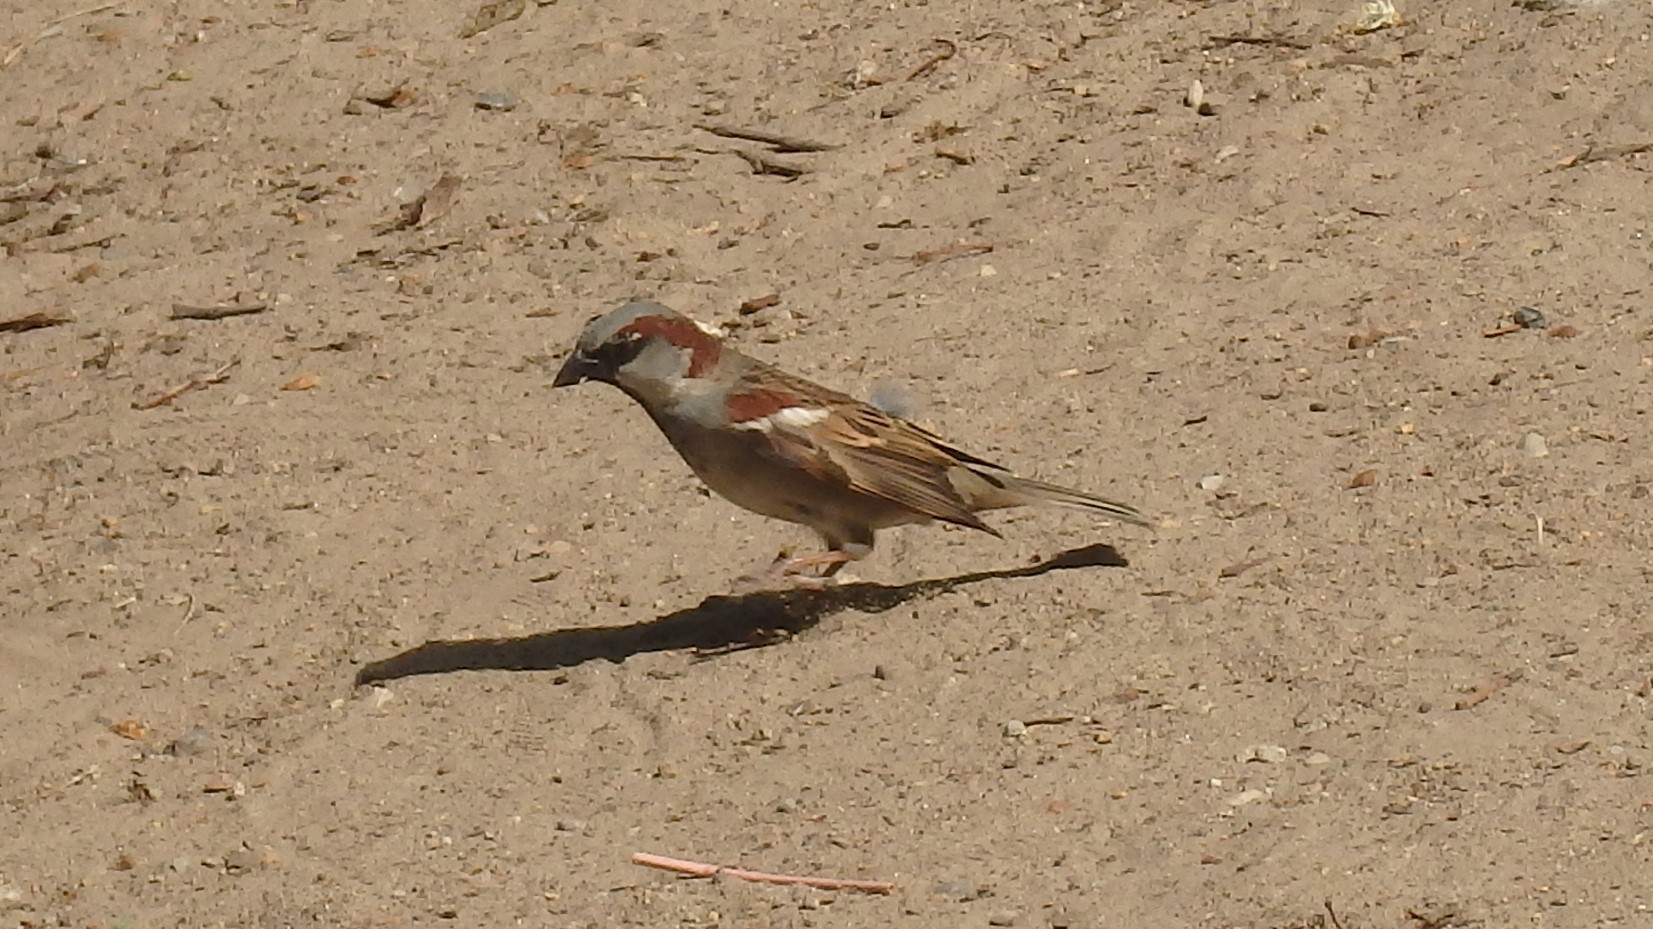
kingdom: Animalia
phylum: Chordata
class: Aves
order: Passeriformes
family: Passeridae
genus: Passer
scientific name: Passer domesticus
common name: House sparrow
